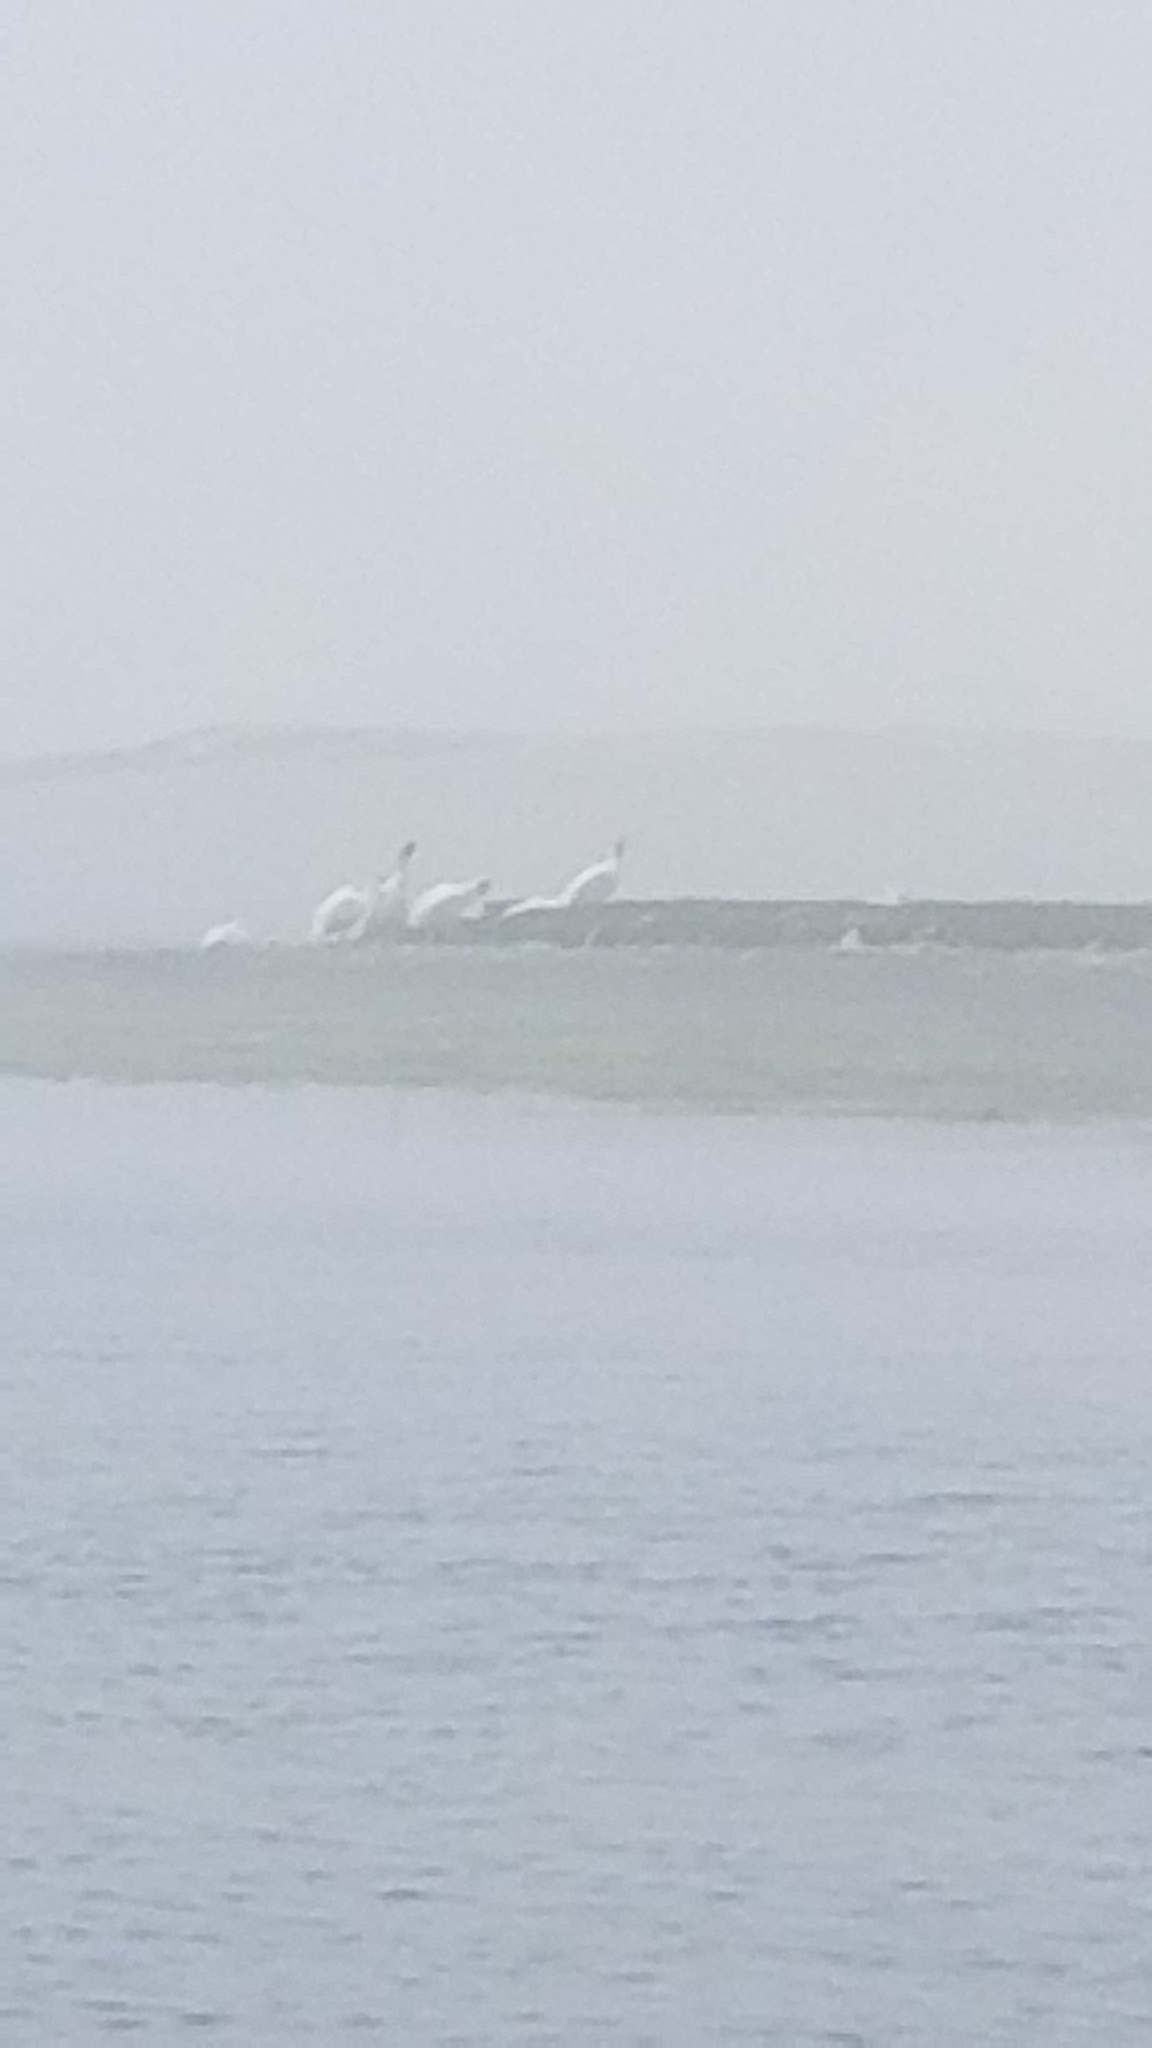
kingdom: Animalia
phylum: Chordata
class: Aves
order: Pelecaniformes
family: Pelecanidae
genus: Pelecanus
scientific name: Pelecanus erythrorhynchos
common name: American white pelican
